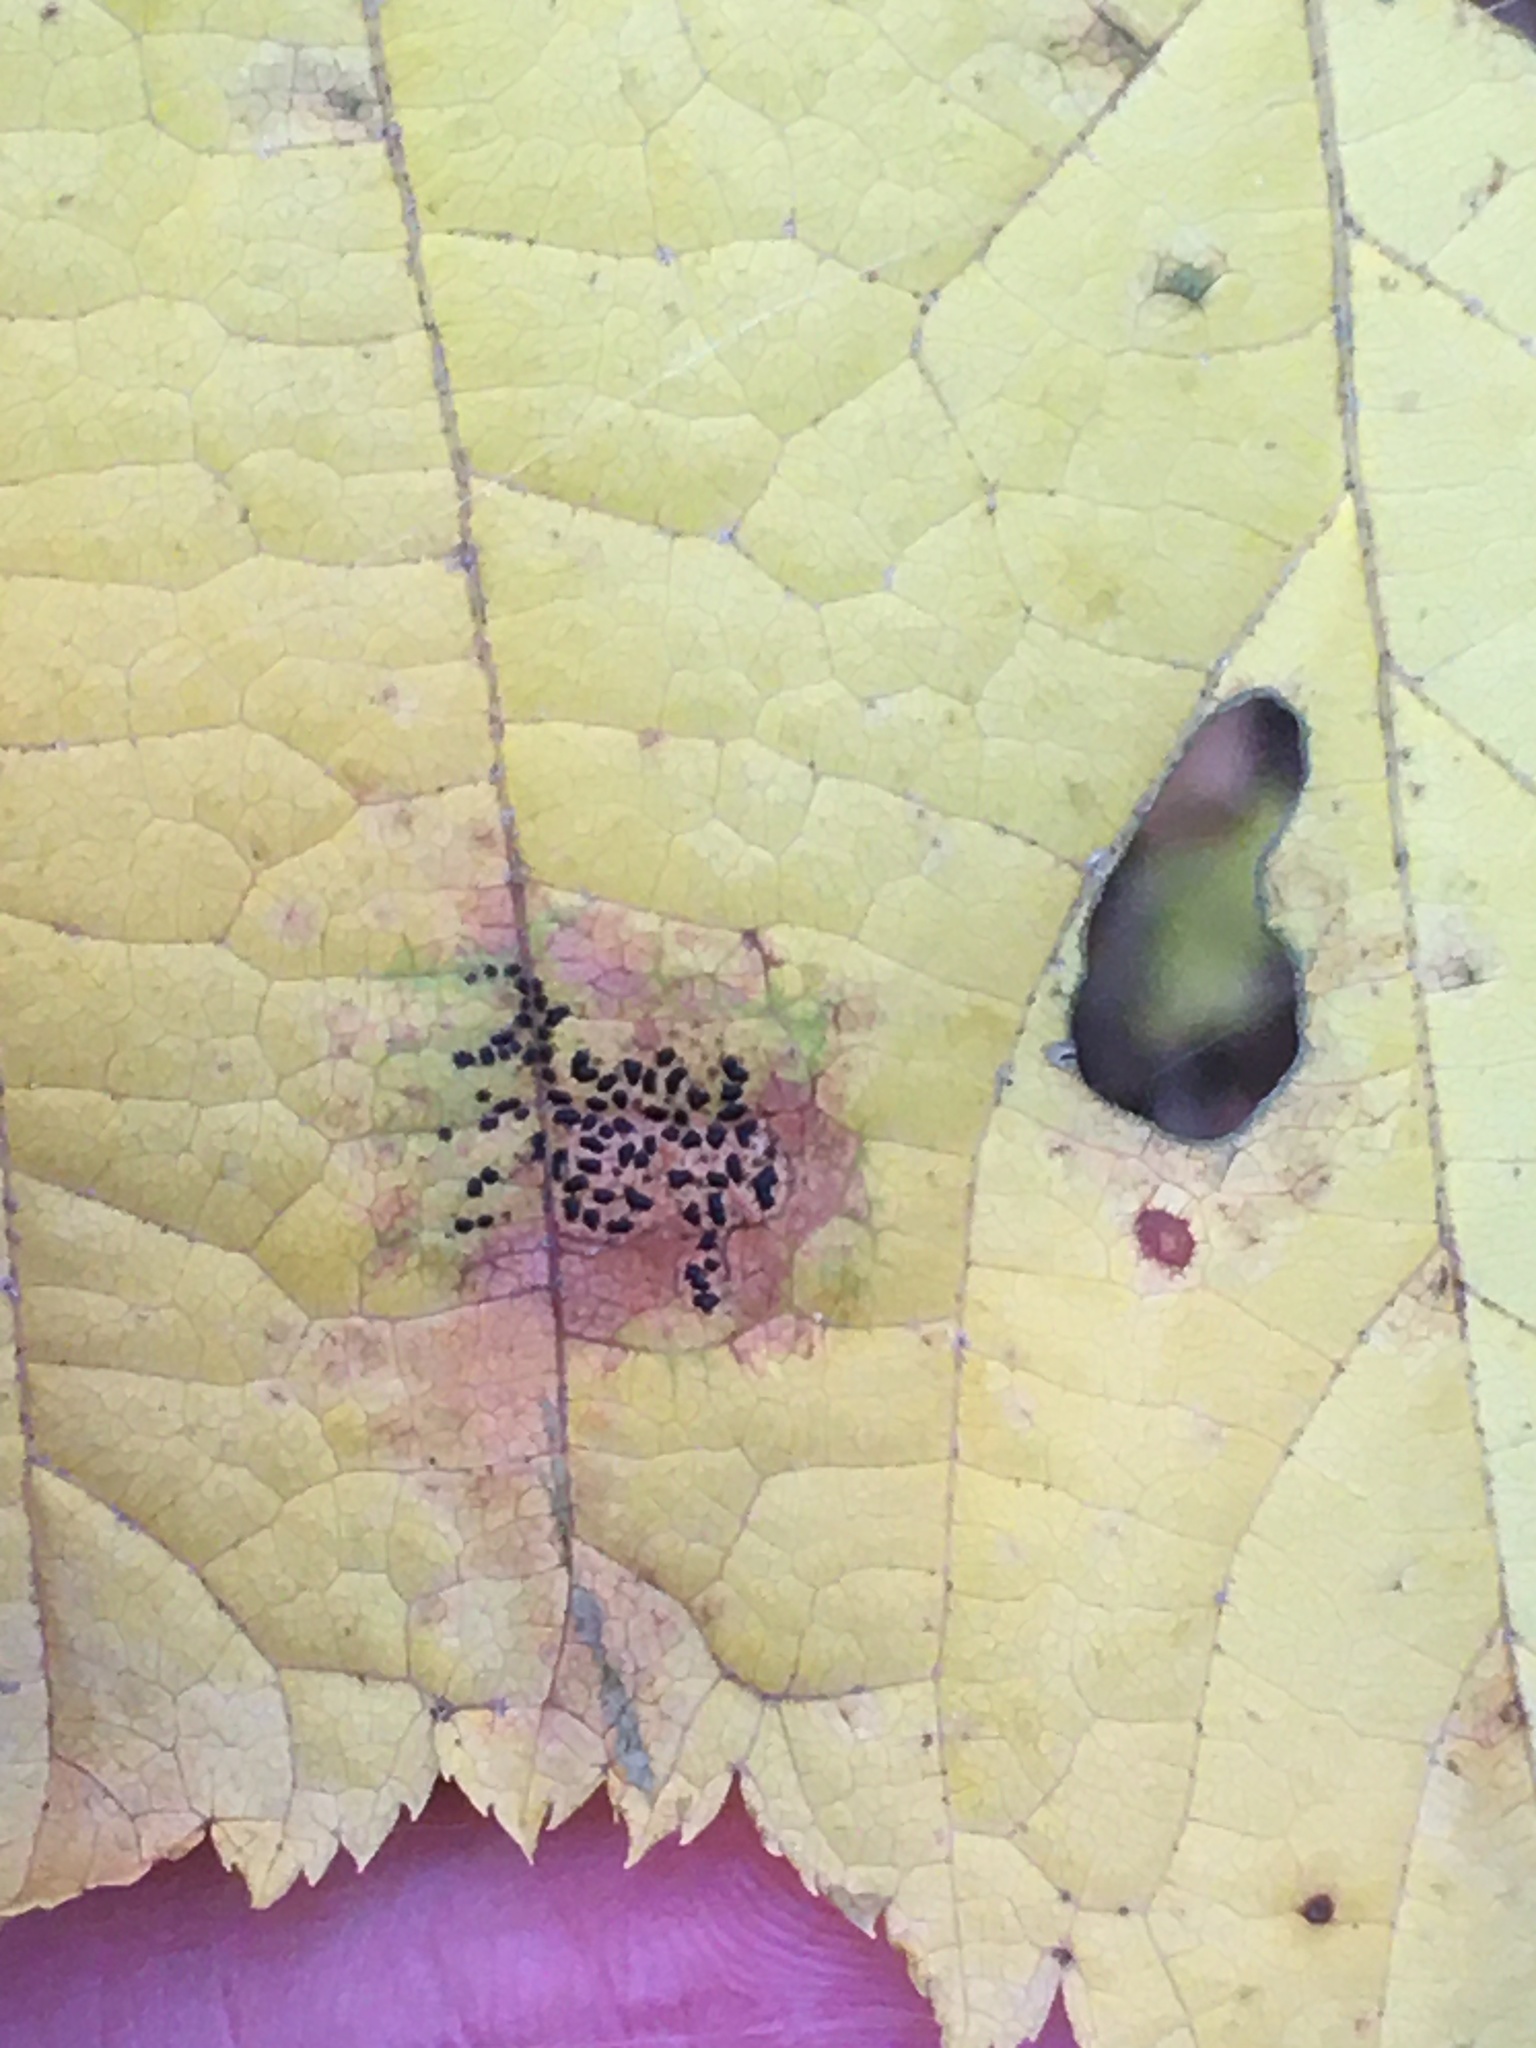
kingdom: Fungi
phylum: Ascomycota
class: Leotiomycetes
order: Rhytismatales
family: Rhytismataceae
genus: Rhytisma
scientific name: Rhytisma punctatum
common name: Speckled tar spot
